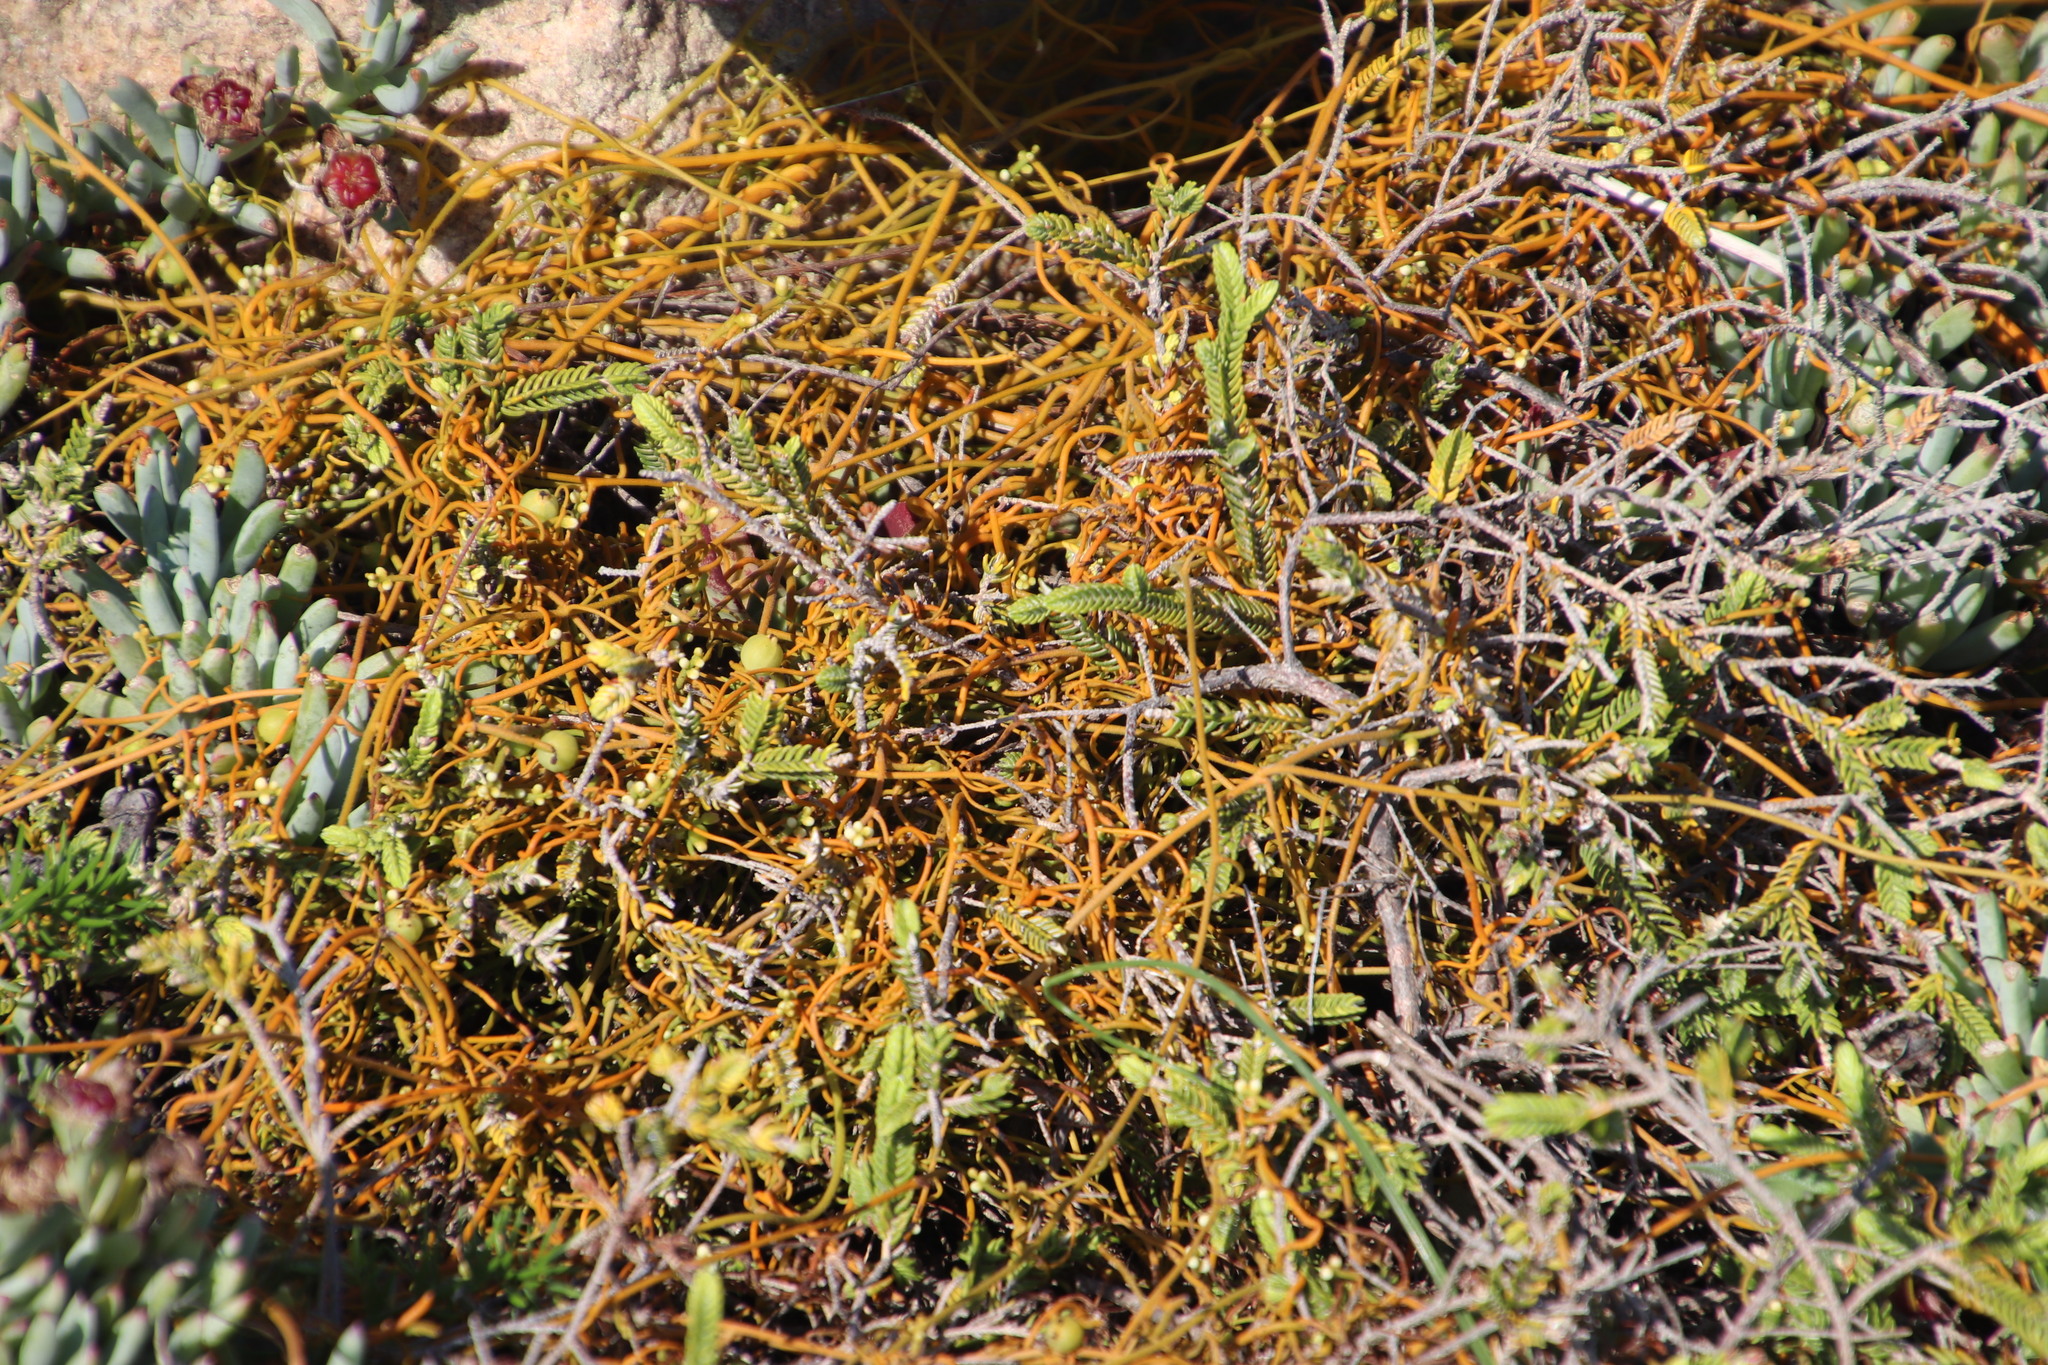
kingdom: Plantae
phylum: Tracheophyta
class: Magnoliopsida
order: Laurales
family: Lauraceae
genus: Cassytha
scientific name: Cassytha pondoensis
